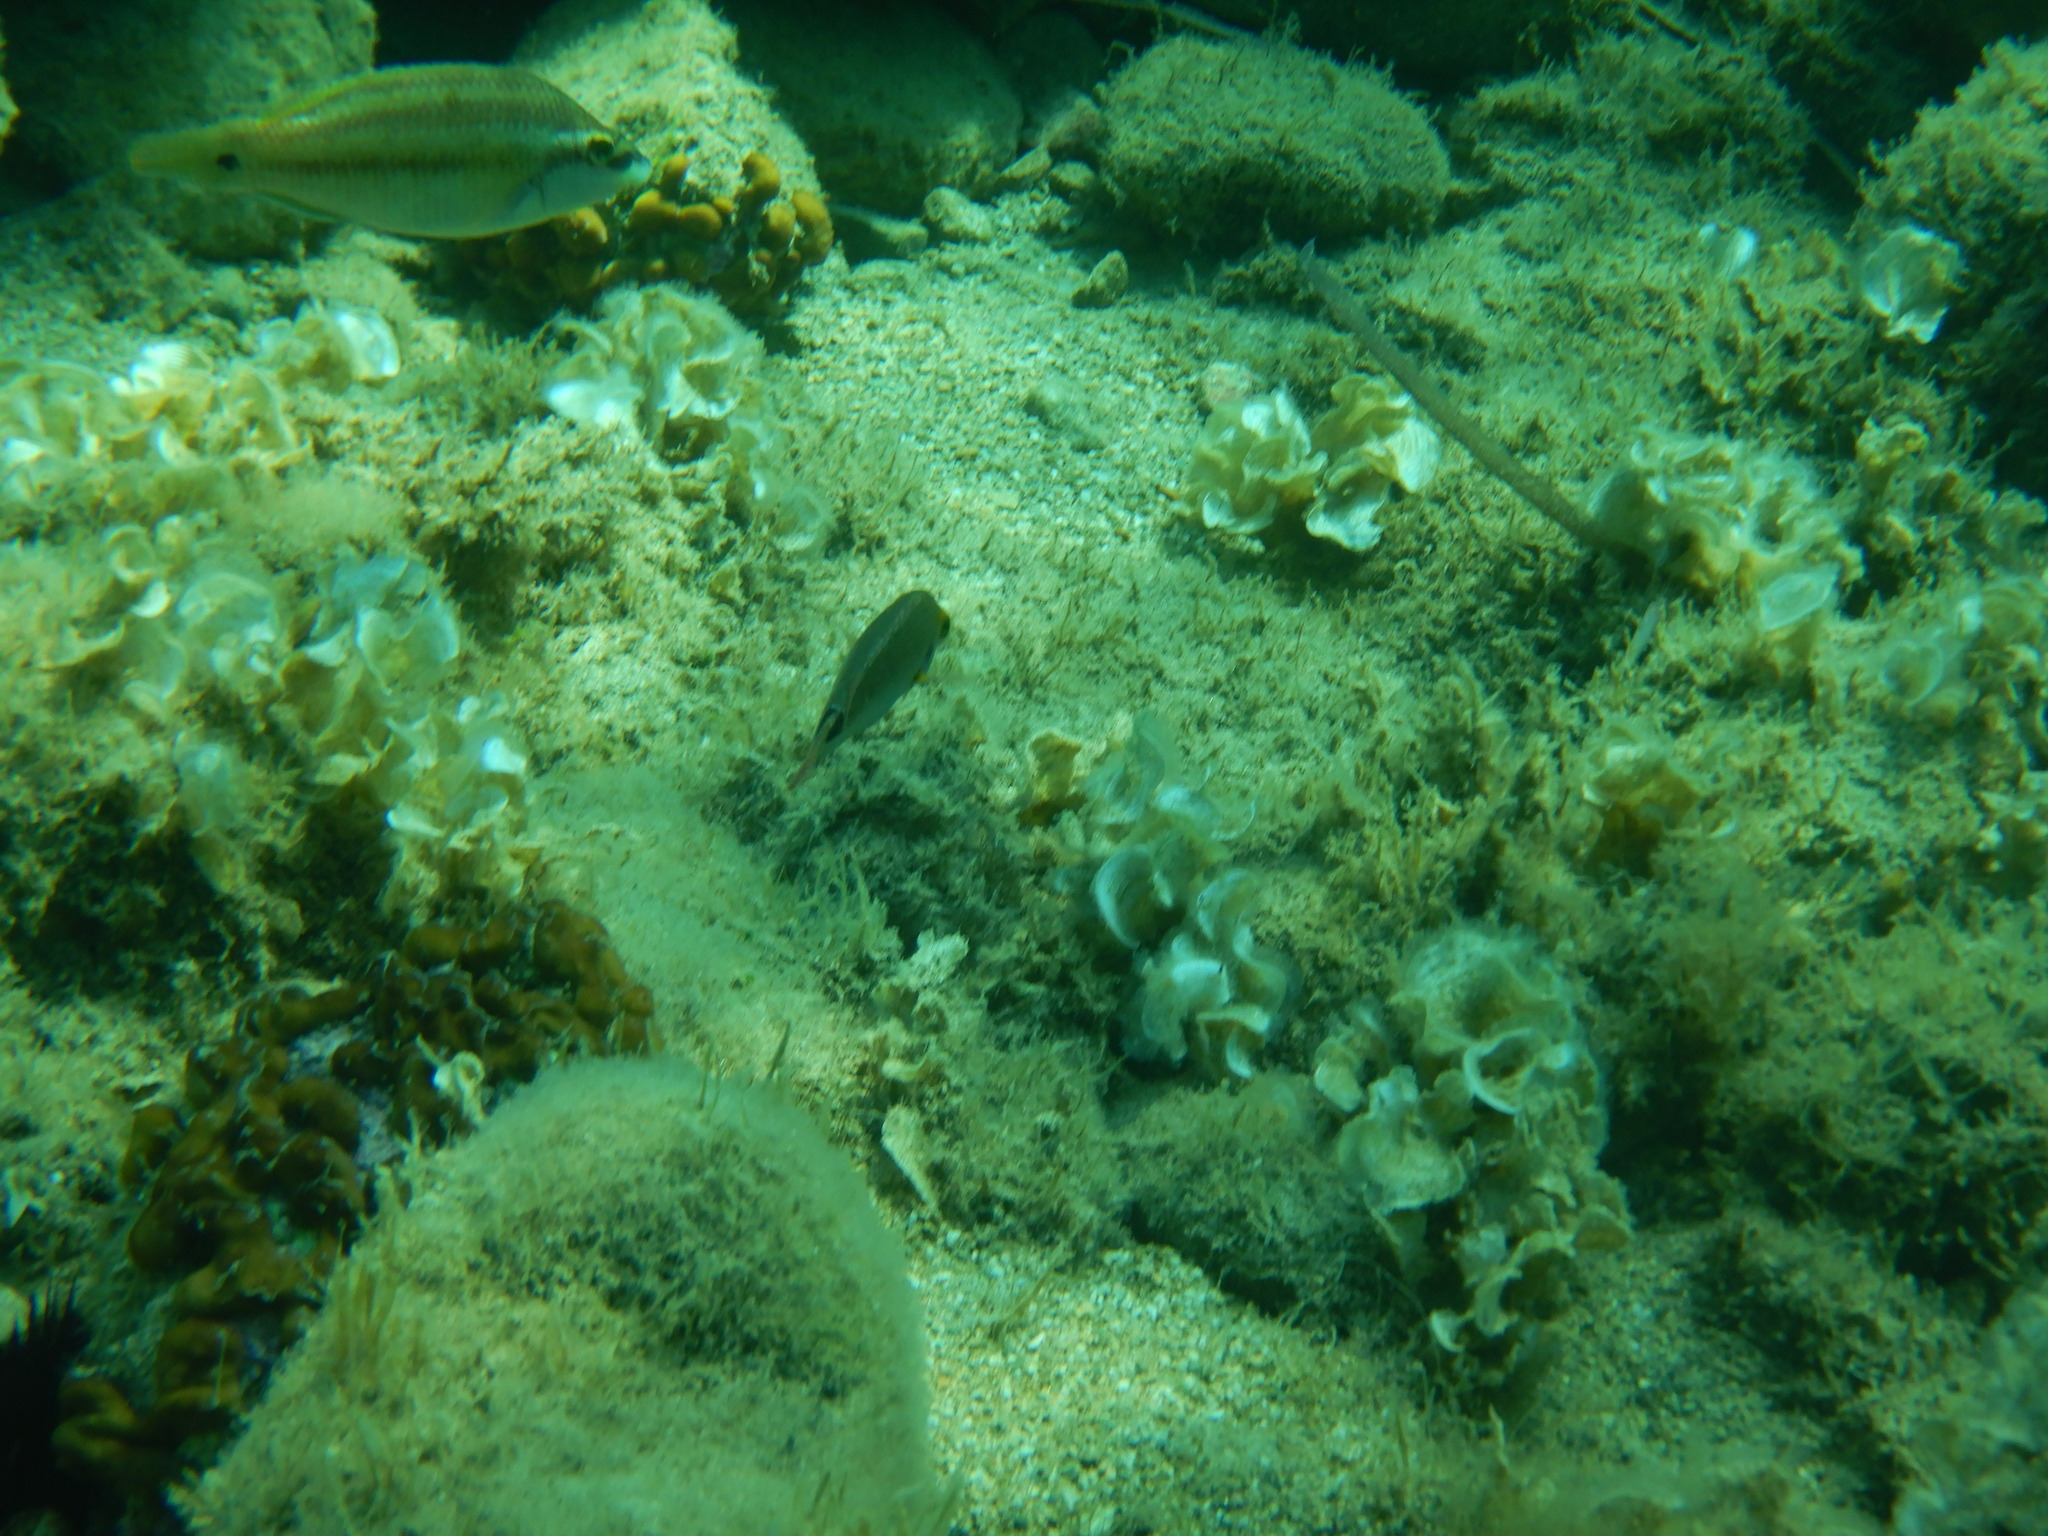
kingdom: Animalia
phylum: Chordata
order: Perciformes
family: Labridae
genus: Symphodus
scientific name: Symphodus tinca
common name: Peacock wrasse
